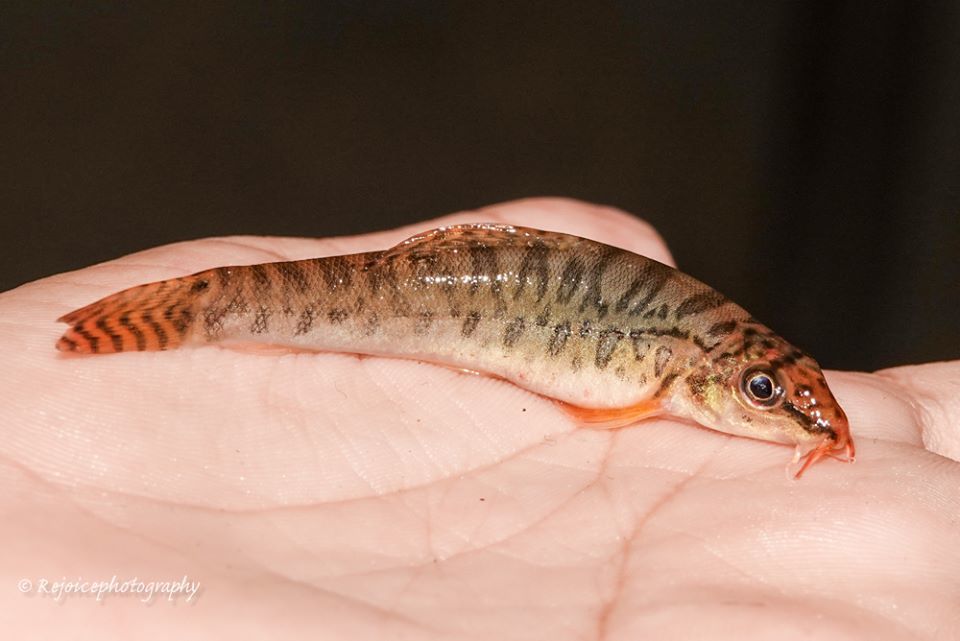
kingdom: Animalia
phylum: Chordata
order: Cypriniformes
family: Nemacheilidae
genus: Acanthocobitis
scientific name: Acanthocobitis botia
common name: Mottled loach
